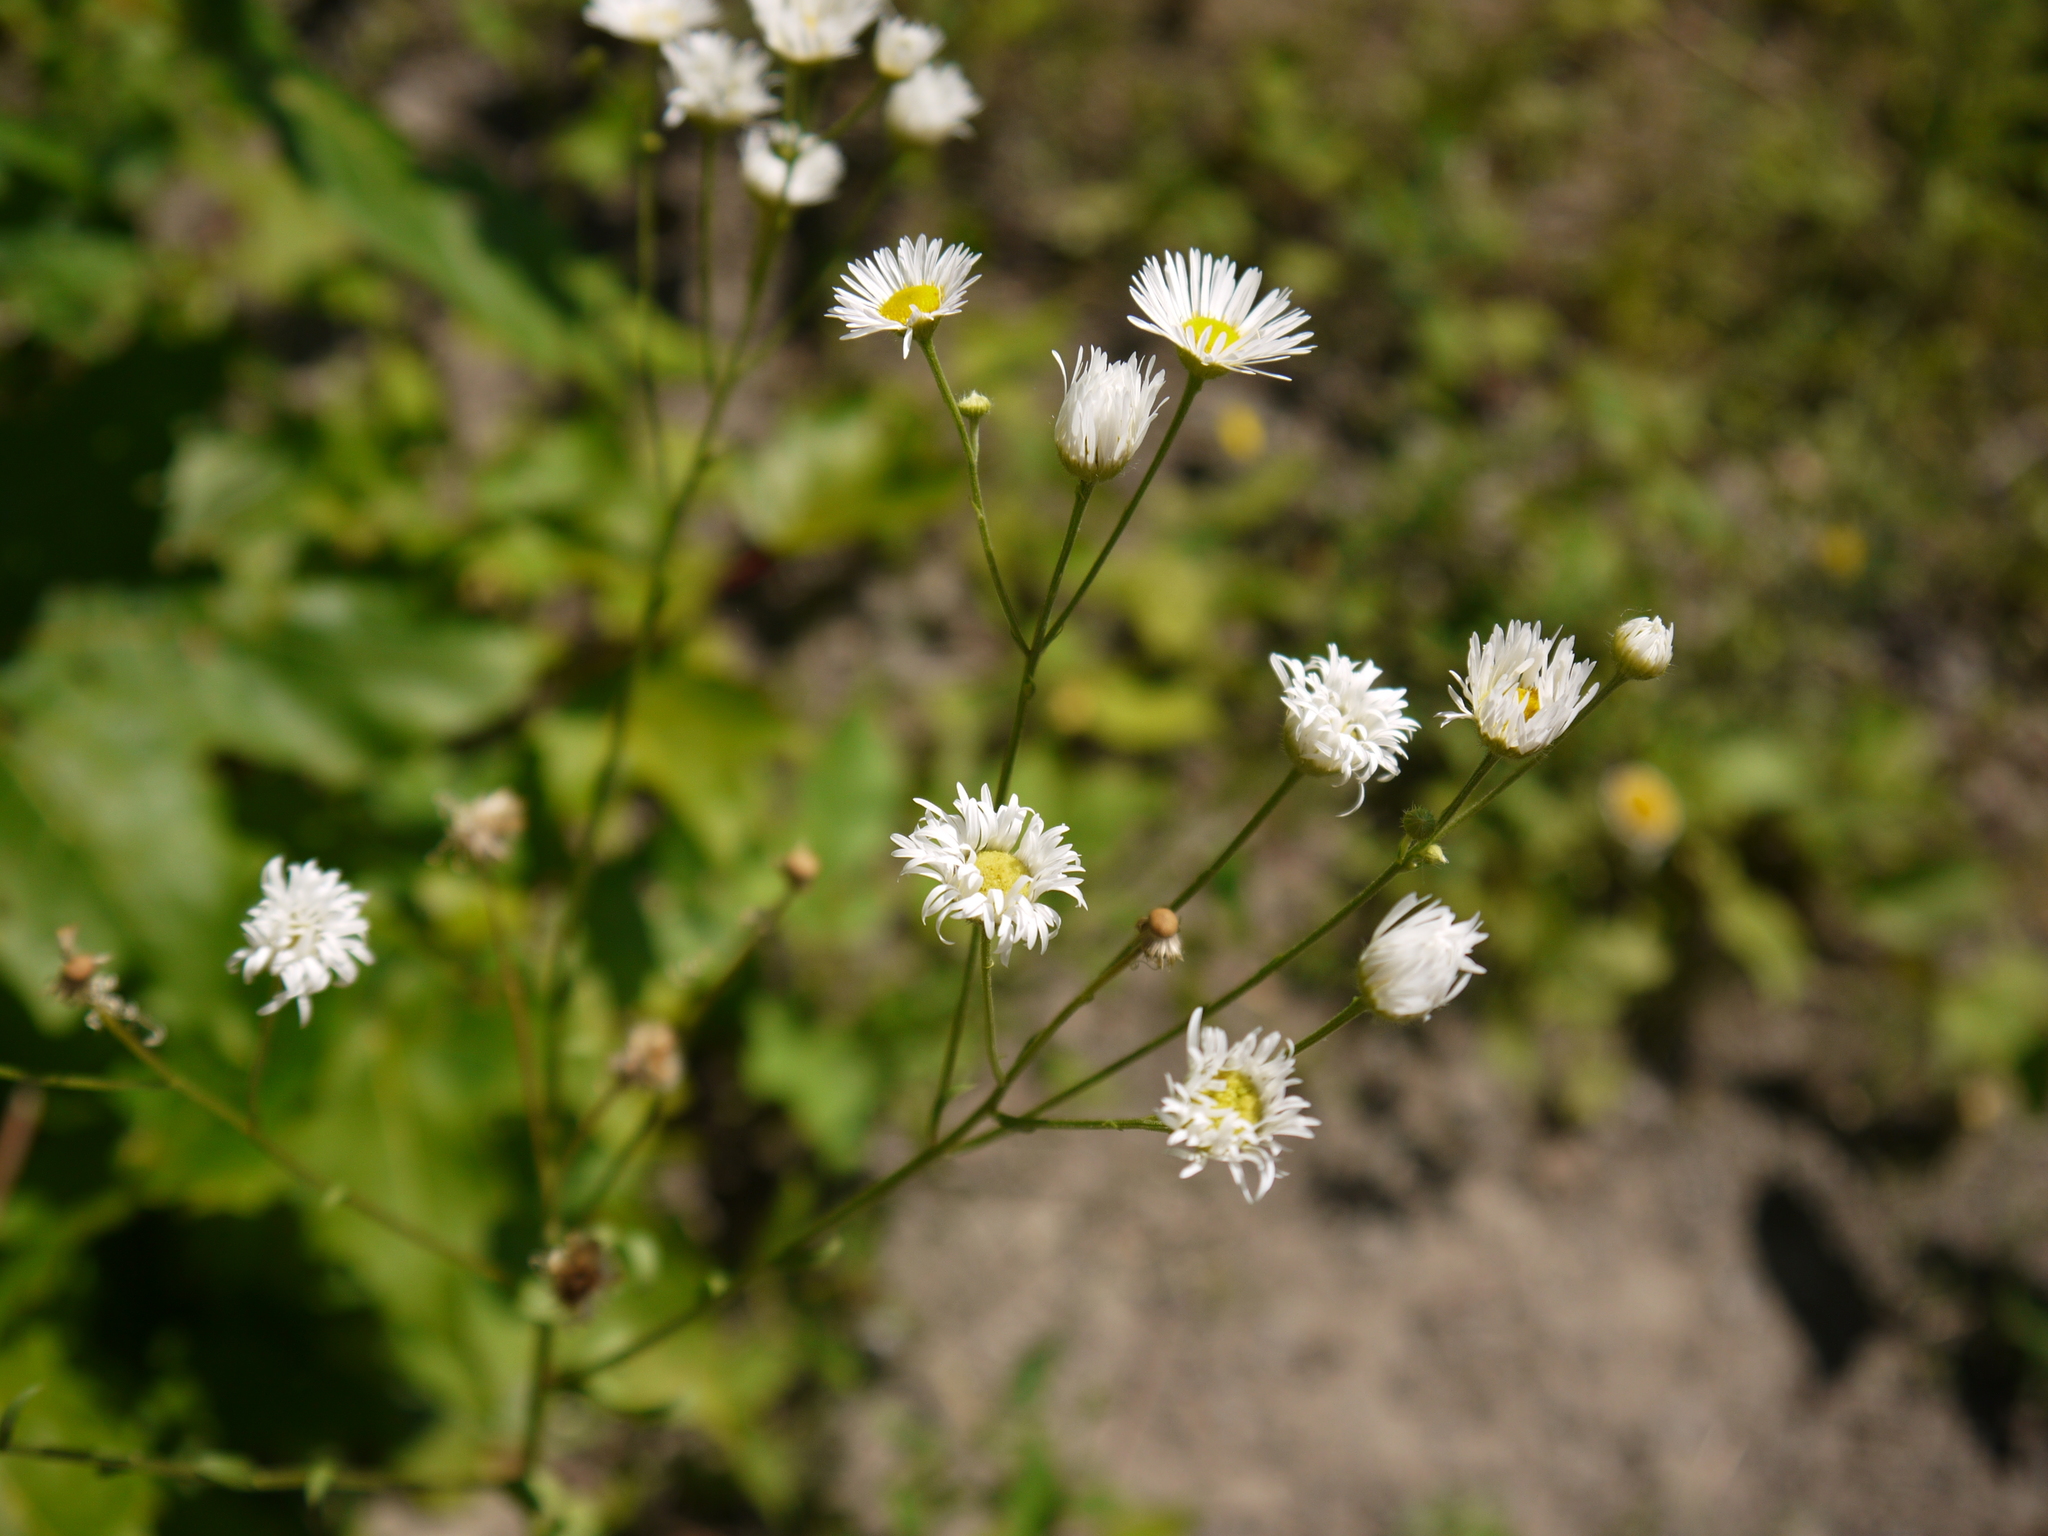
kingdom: Plantae
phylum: Tracheophyta
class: Magnoliopsida
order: Asterales
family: Asteraceae
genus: Erigeron
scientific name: Erigeron
